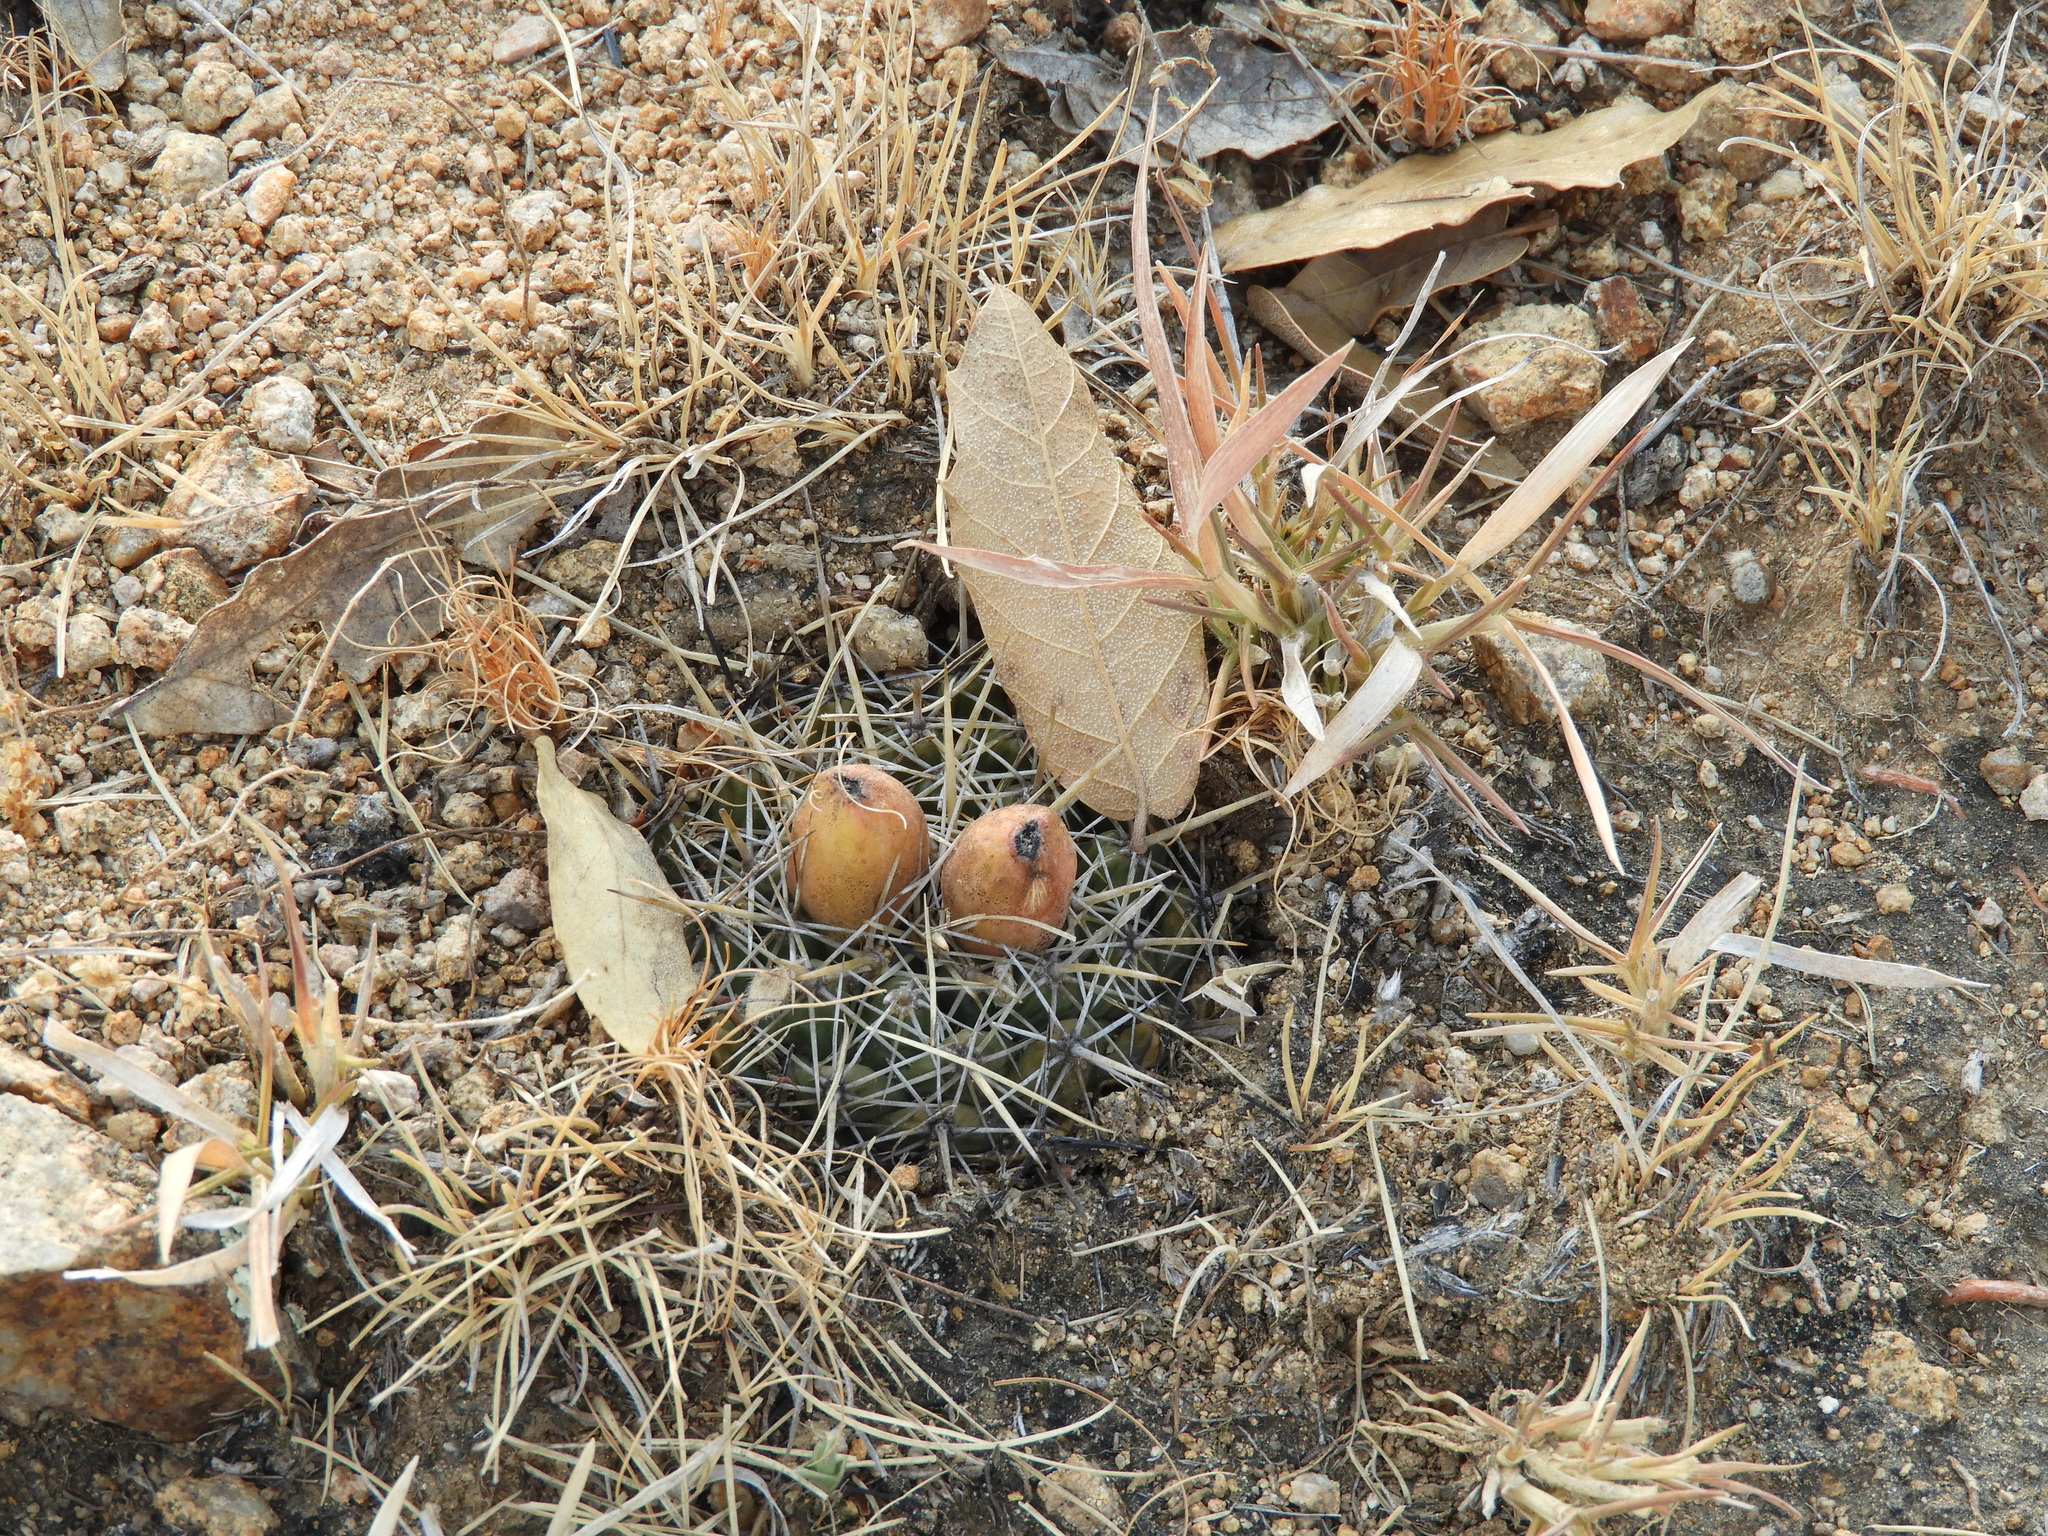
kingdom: Plantae
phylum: Tracheophyta
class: Magnoliopsida
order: Caryophyllales
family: Cactaceae
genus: Coryphantha
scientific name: Coryphantha ottonis
